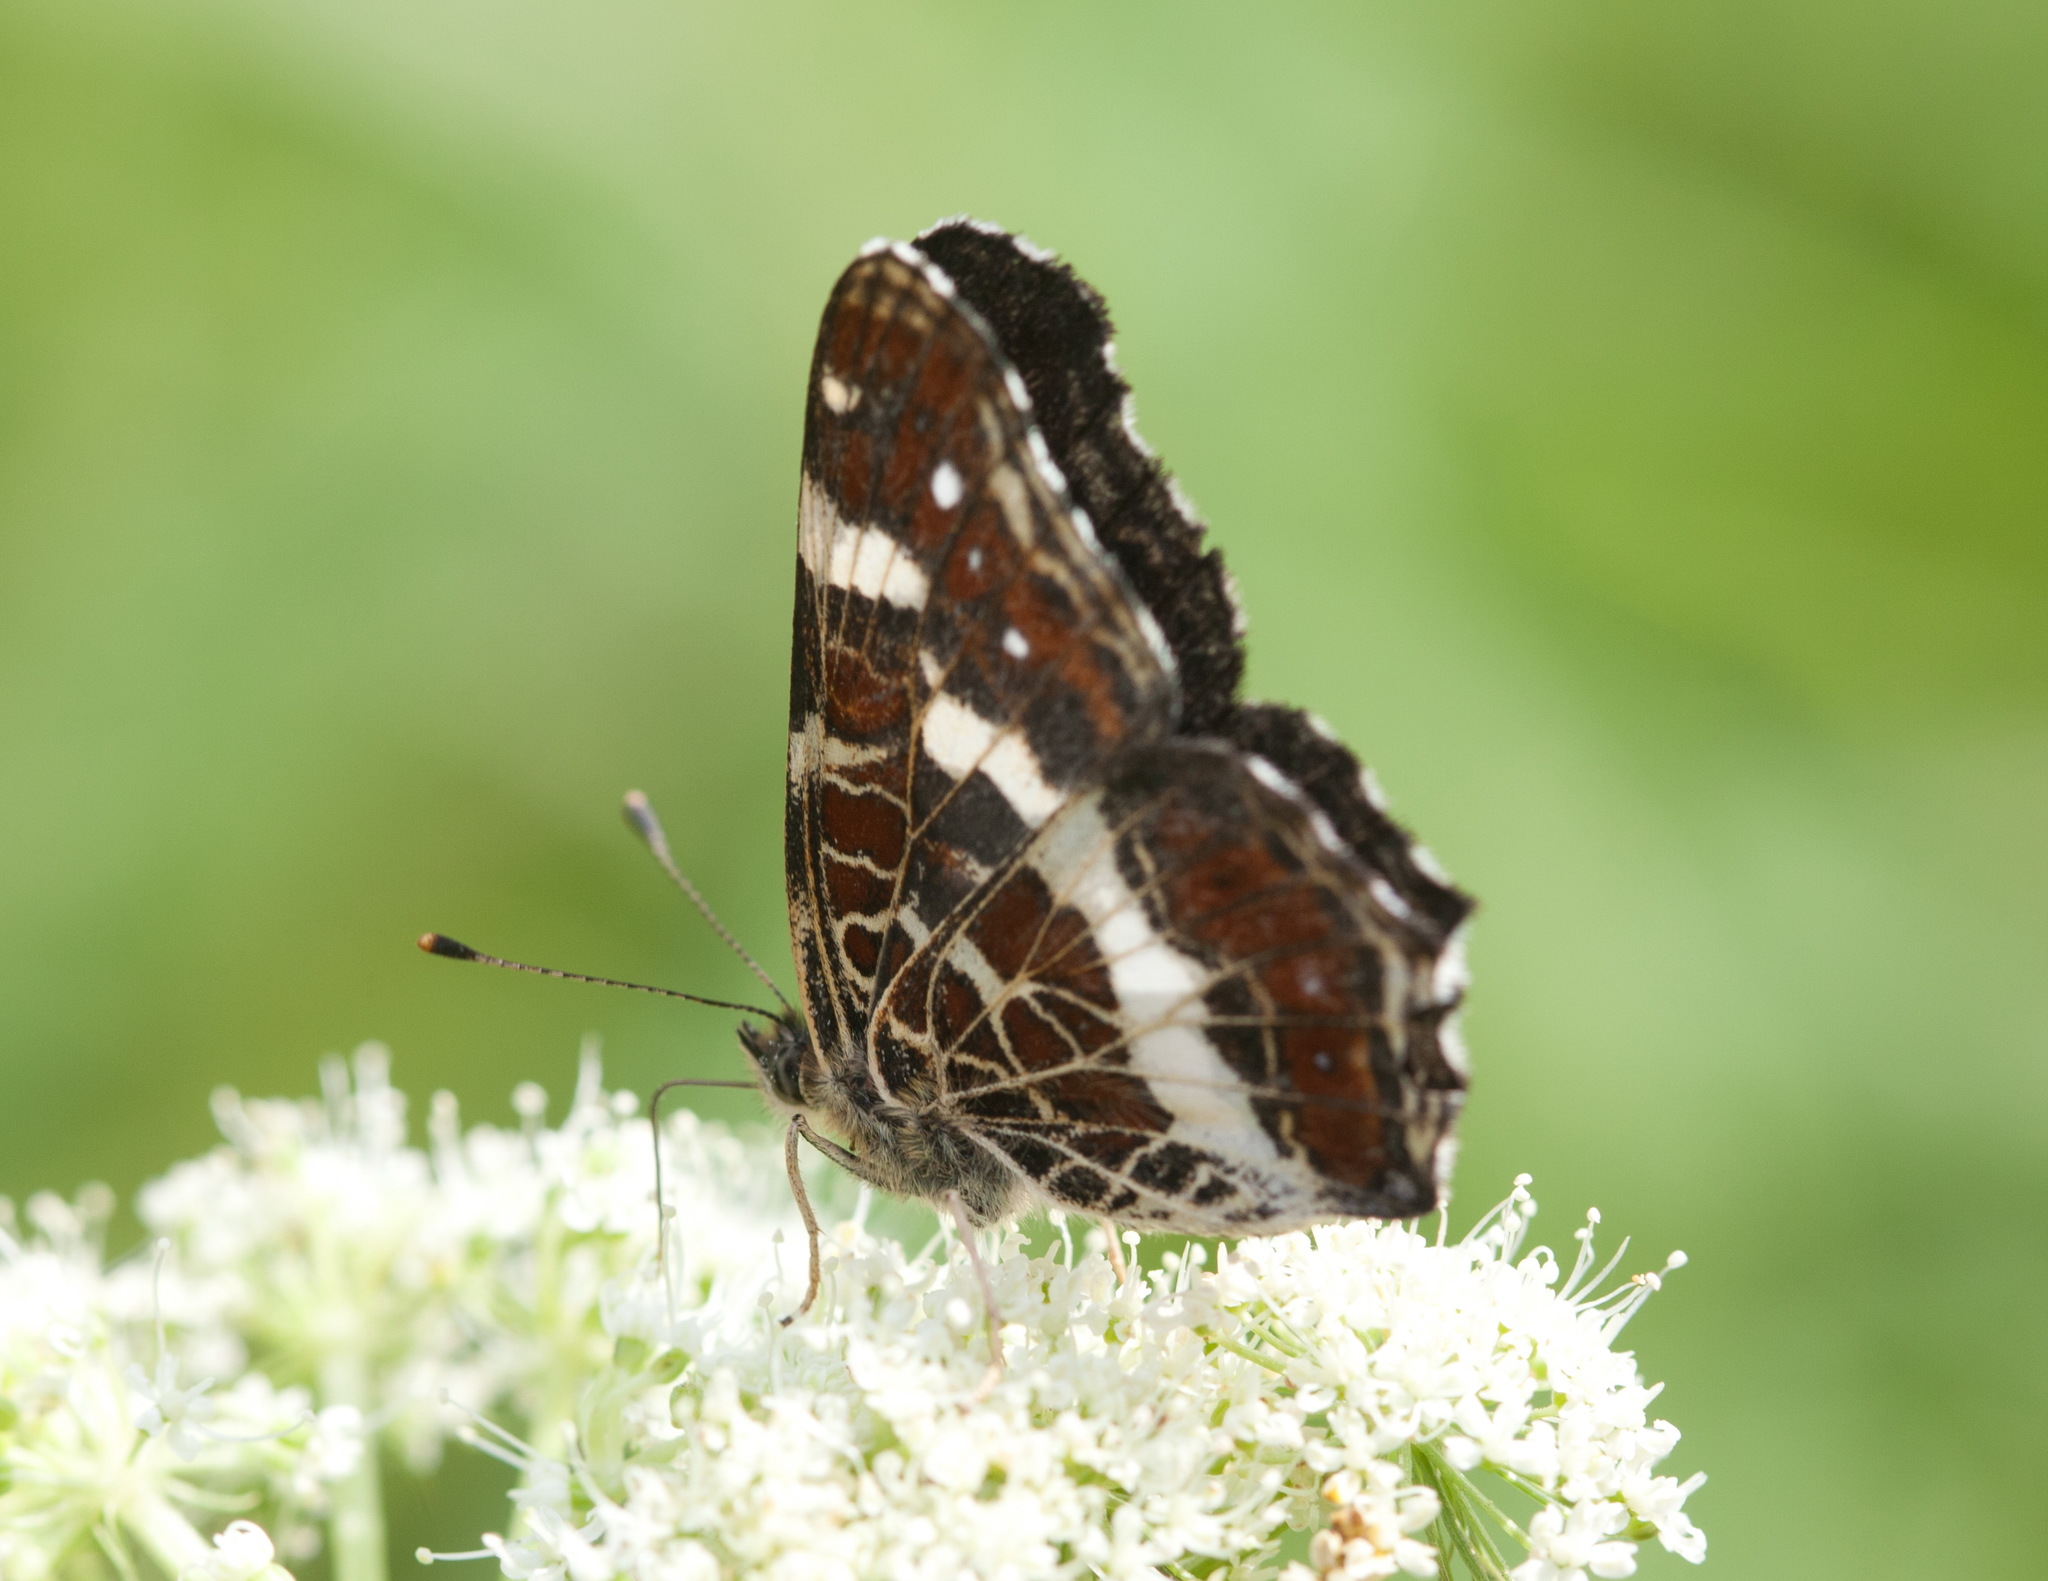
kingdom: Animalia
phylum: Arthropoda
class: Insecta
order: Lepidoptera
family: Nymphalidae
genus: Araschnia
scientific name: Araschnia levana
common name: Map butterfly
